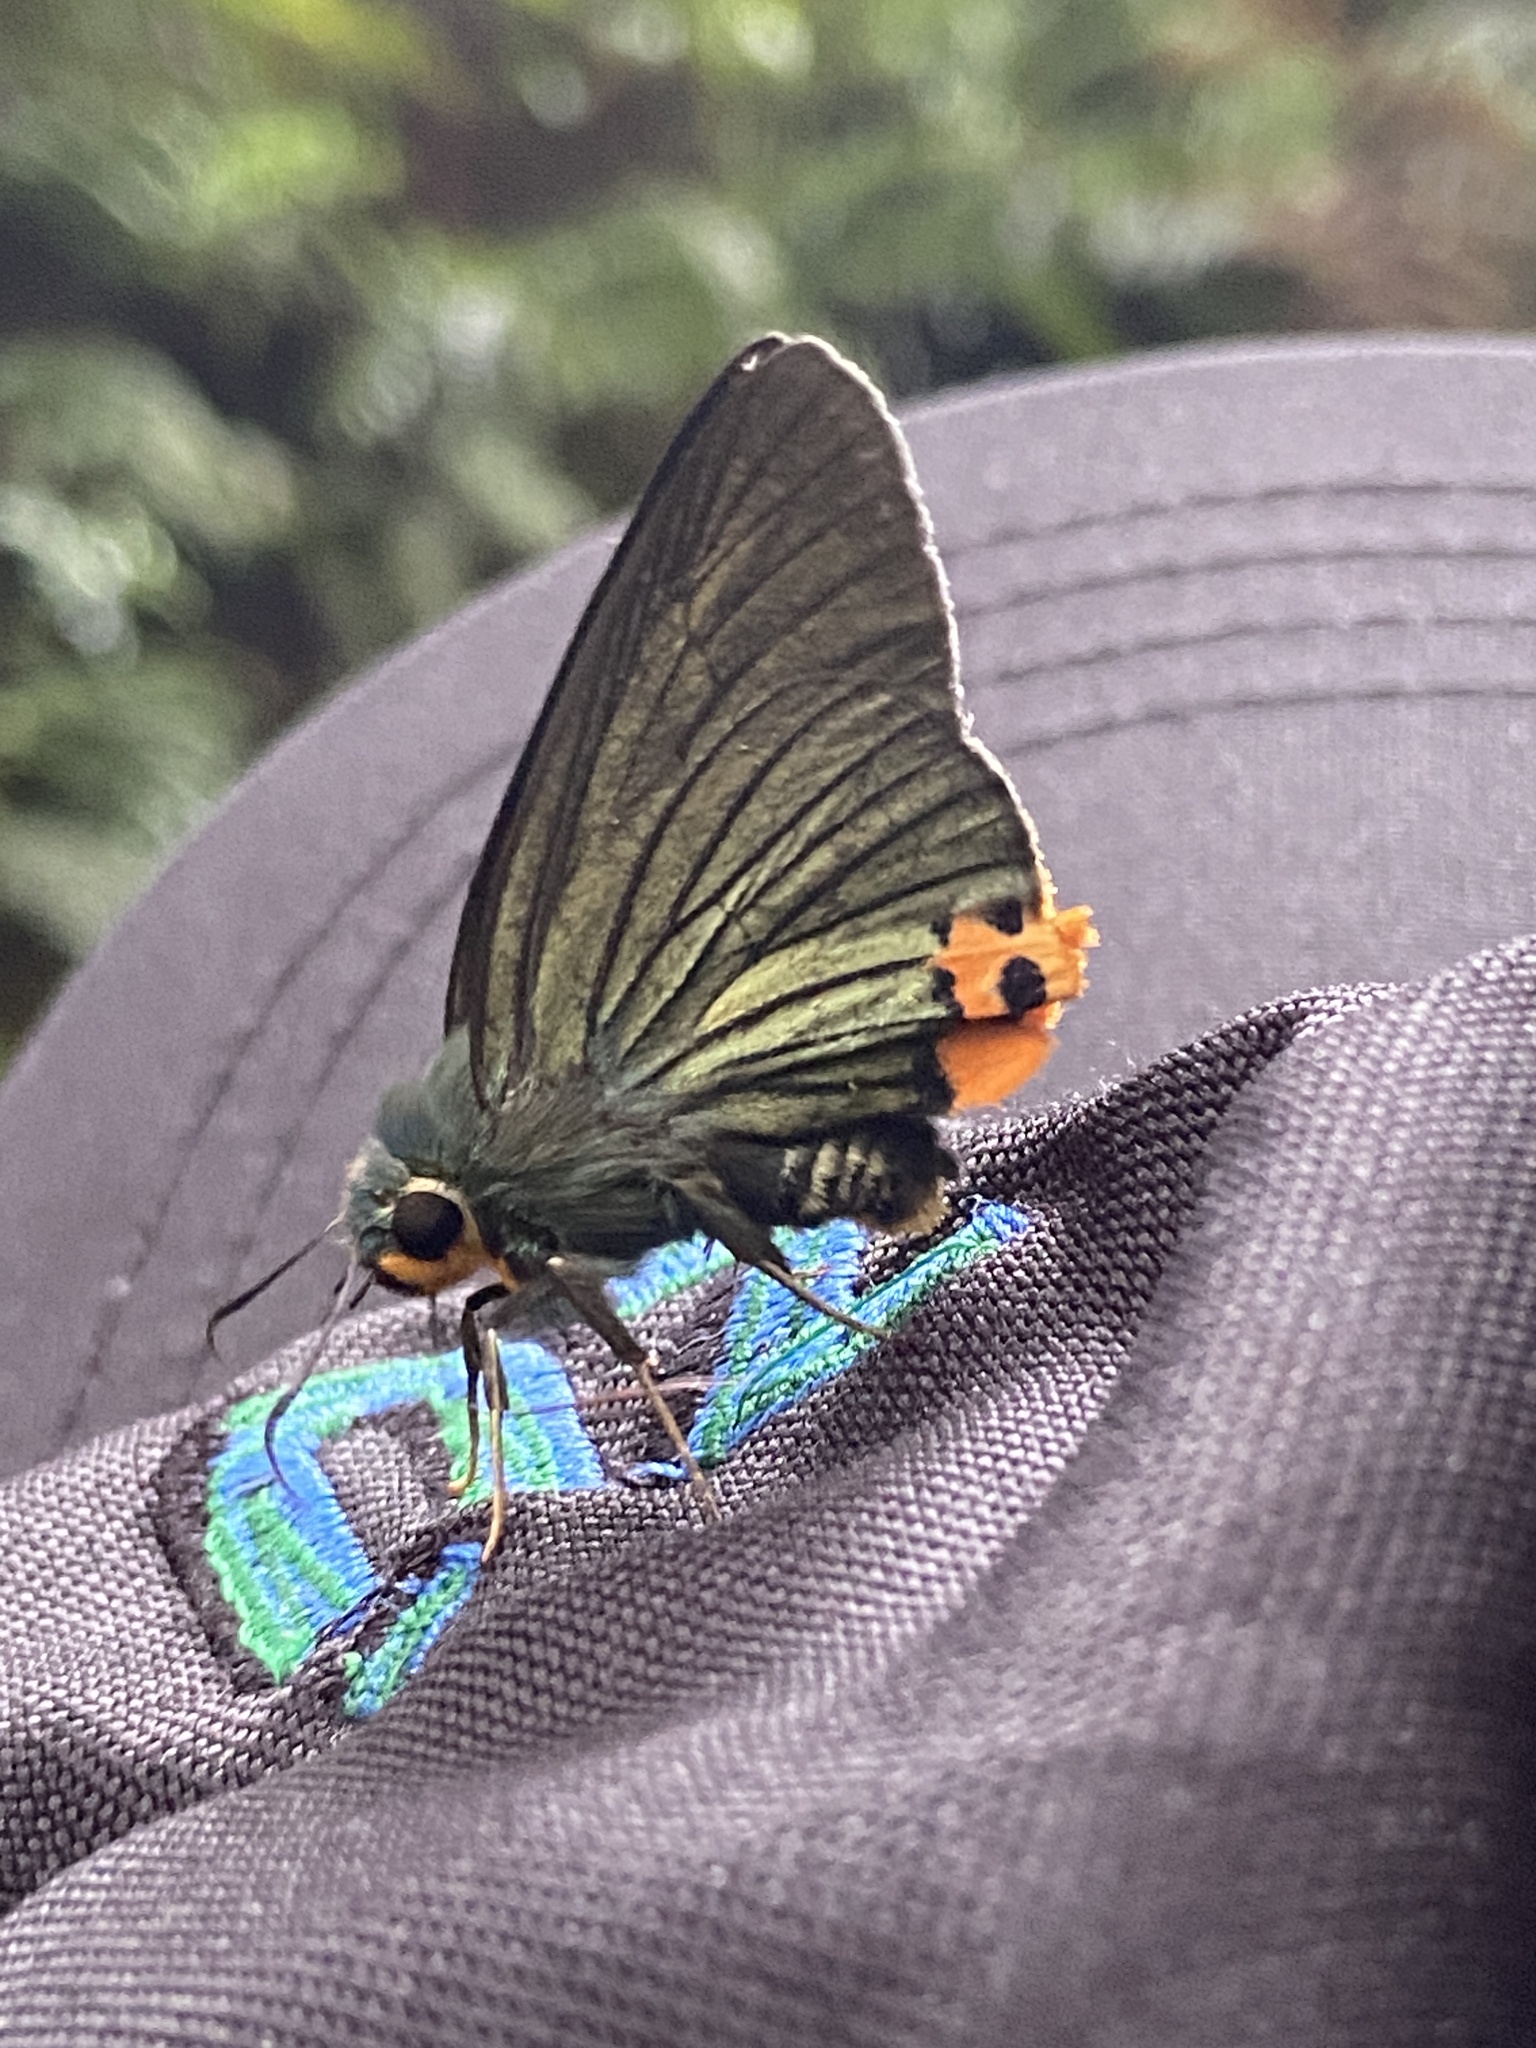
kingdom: Animalia
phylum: Arthropoda
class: Insecta
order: Lepidoptera
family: Hesperiidae
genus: Choaspes
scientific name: Choaspes benjaminii
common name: Indian awlking
